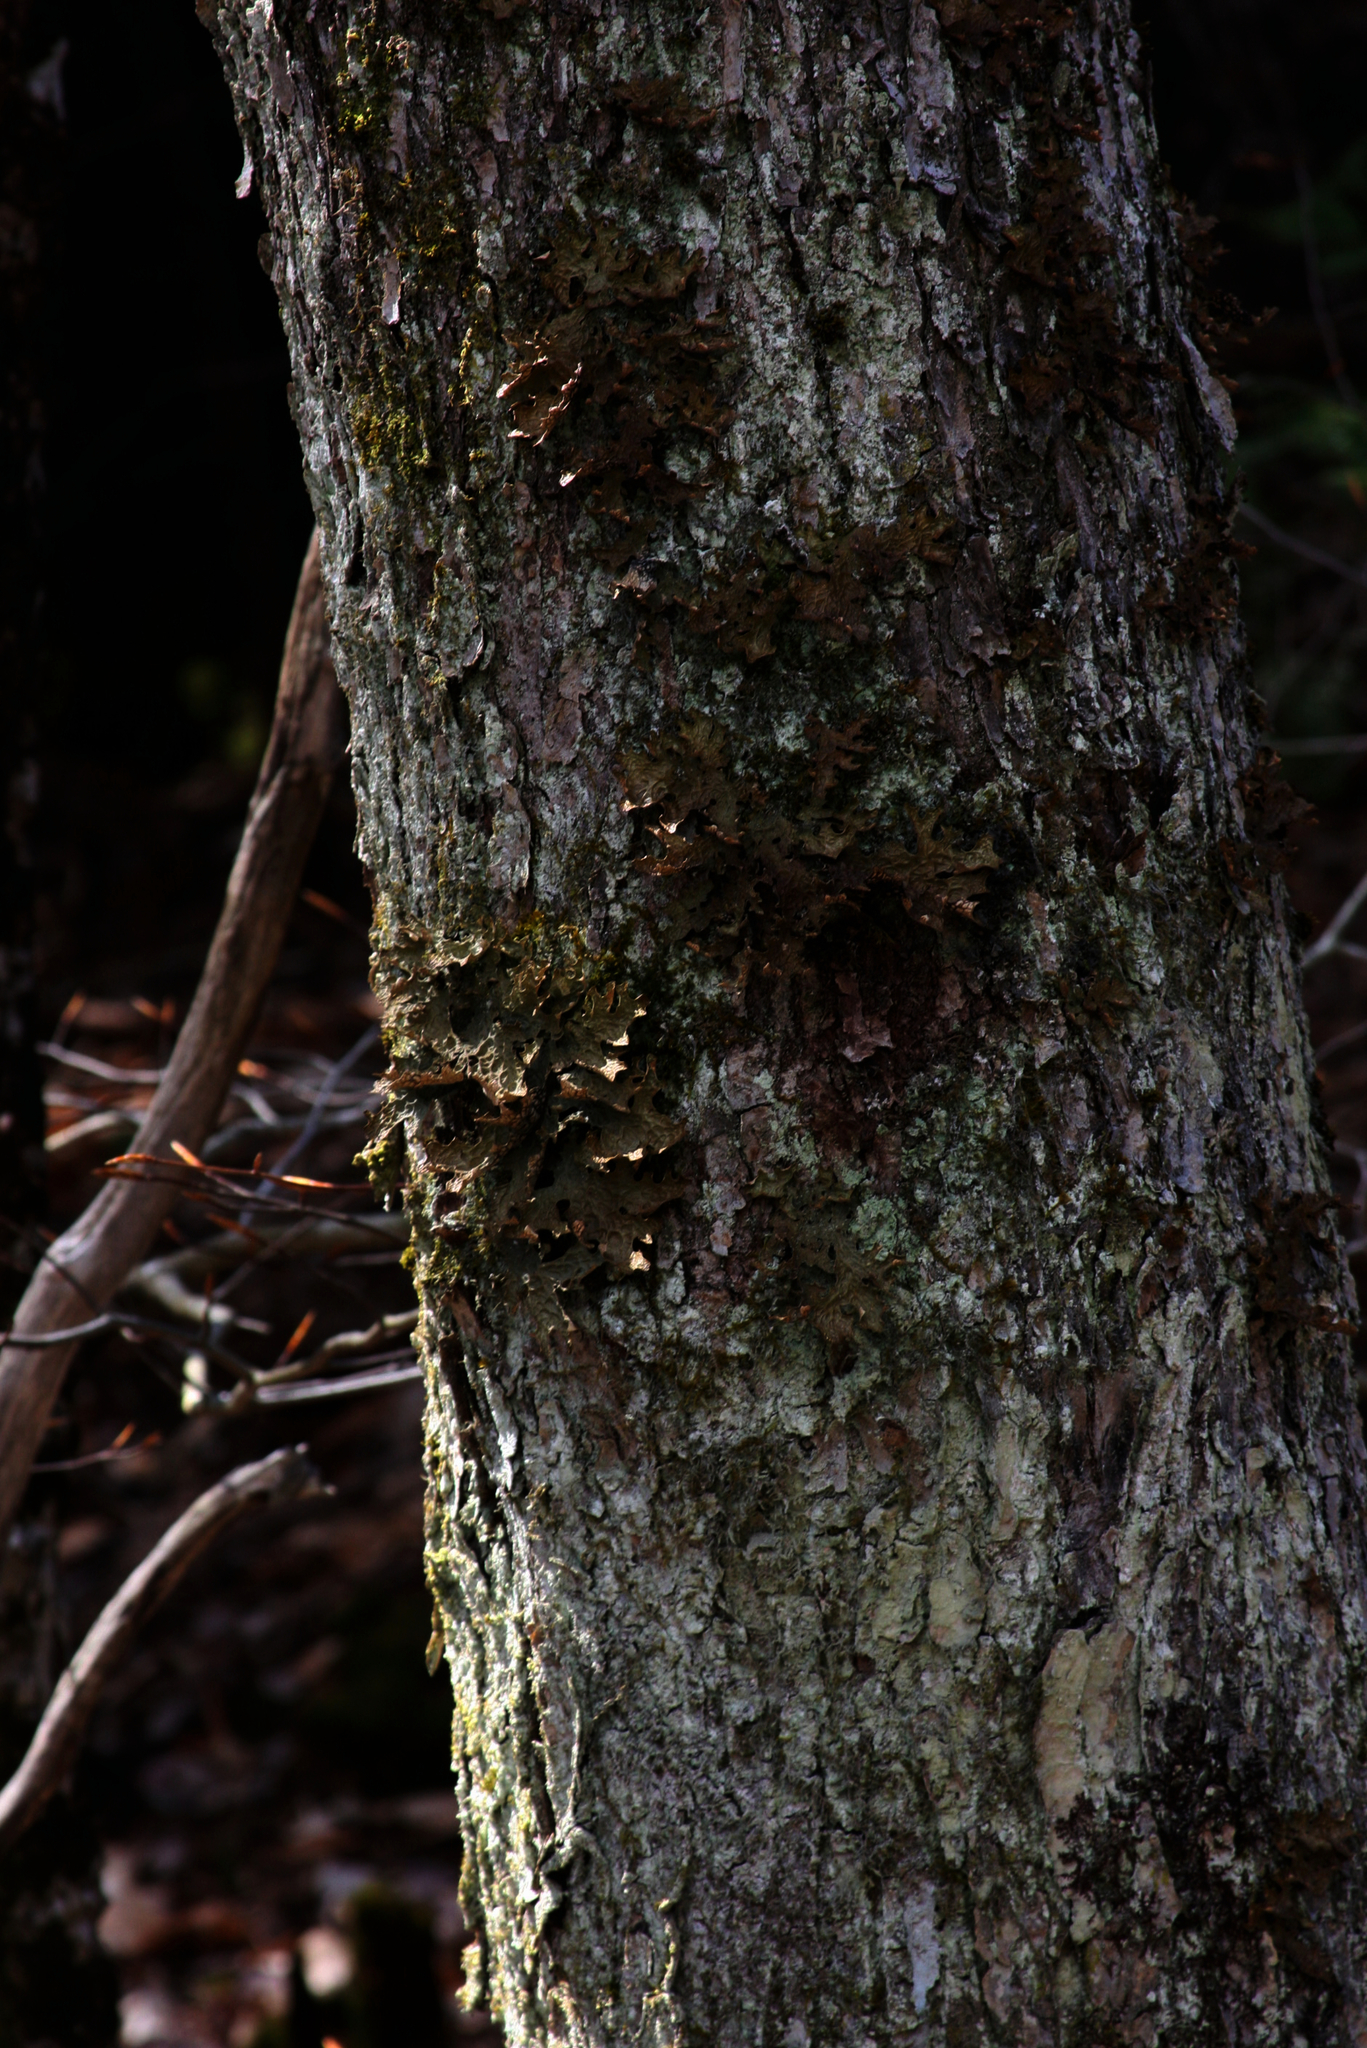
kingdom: Fungi
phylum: Ascomycota
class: Lecanoromycetes
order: Peltigerales
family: Lobariaceae
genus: Lobaria
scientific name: Lobaria pulmonaria
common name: Lungwort
